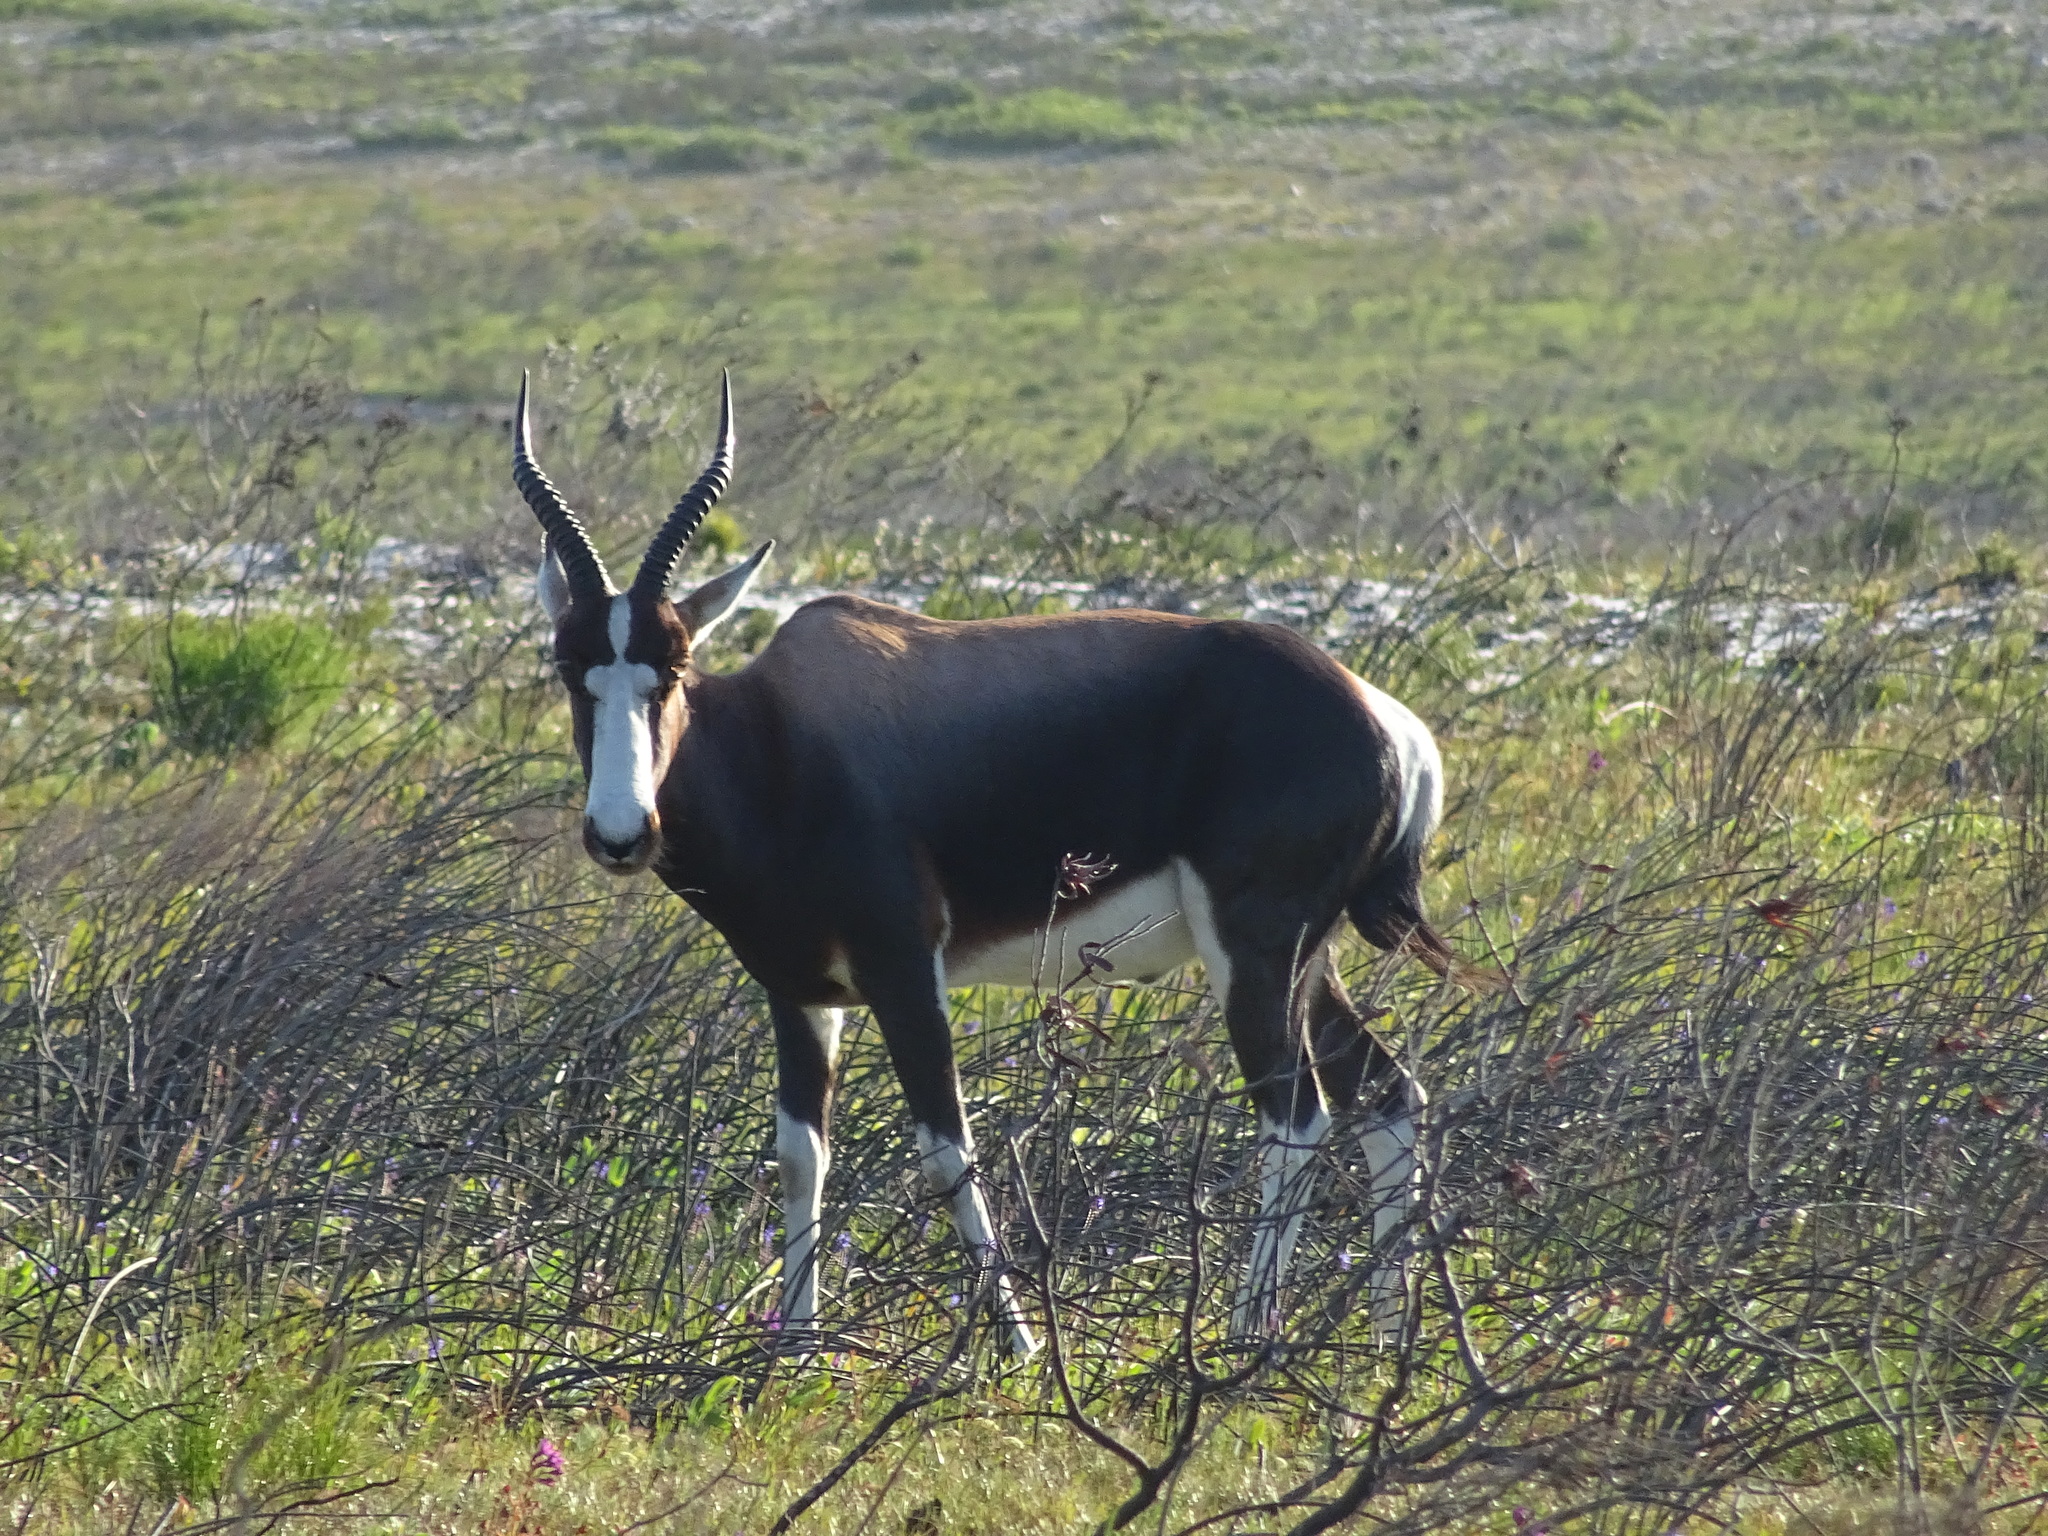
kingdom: Animalia
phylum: Chordata
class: Mammalia
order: Artiodactyla
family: Bovidae
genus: Damaliscus
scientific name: Damaliscus pygargus
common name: Bontebok
